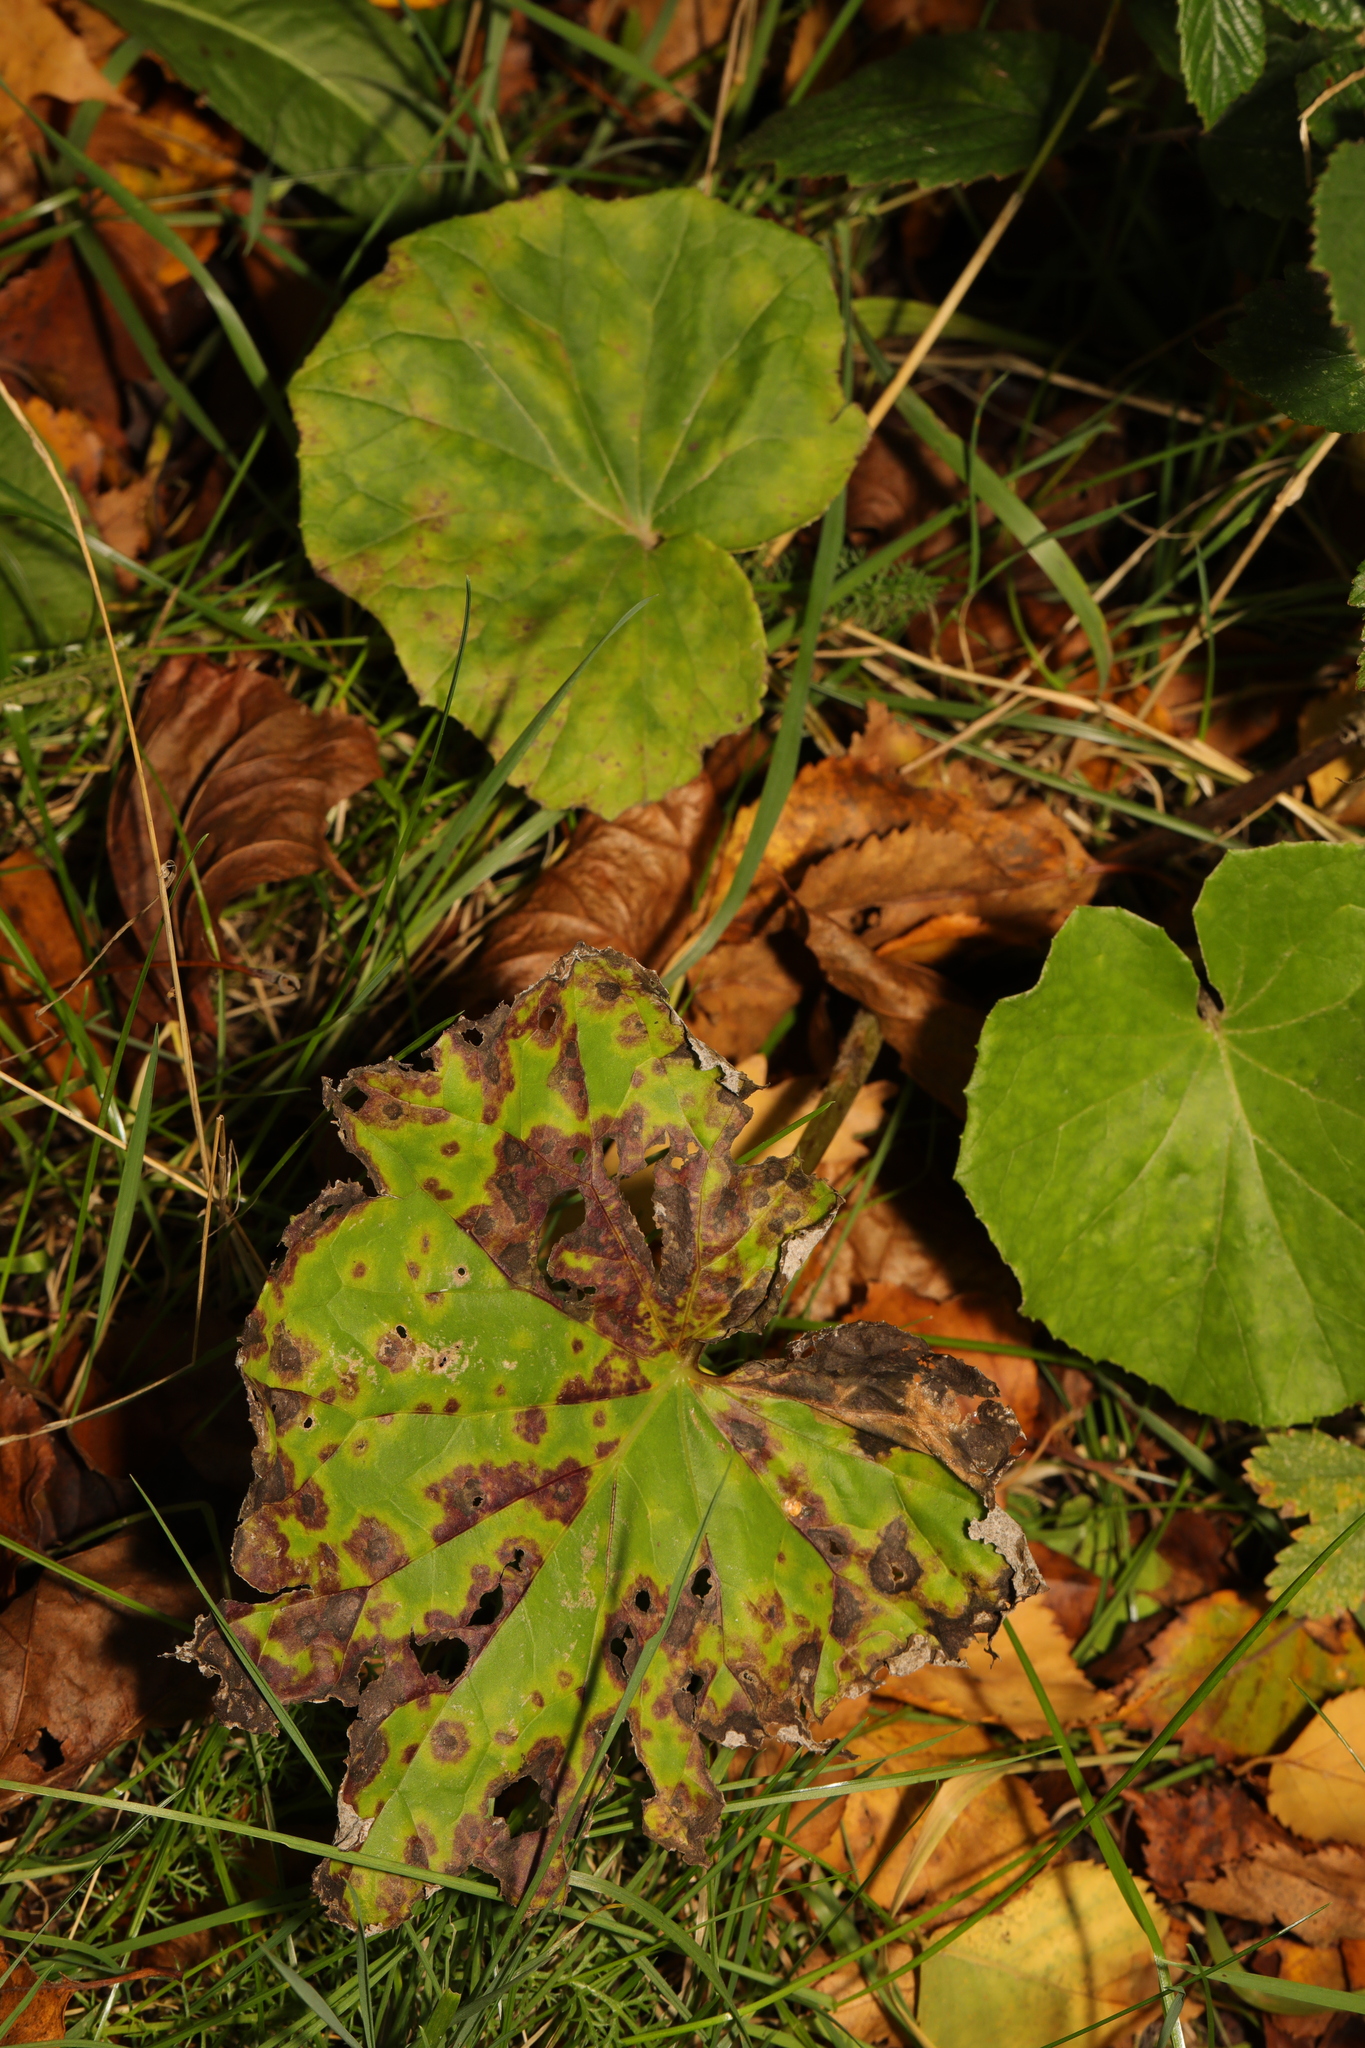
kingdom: Plantae
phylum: Tracheophyta
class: Magnoliopsida
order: Asterales
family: Asteraceae
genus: Tussilago
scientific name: Tussilago farfara
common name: Coltsfoot
